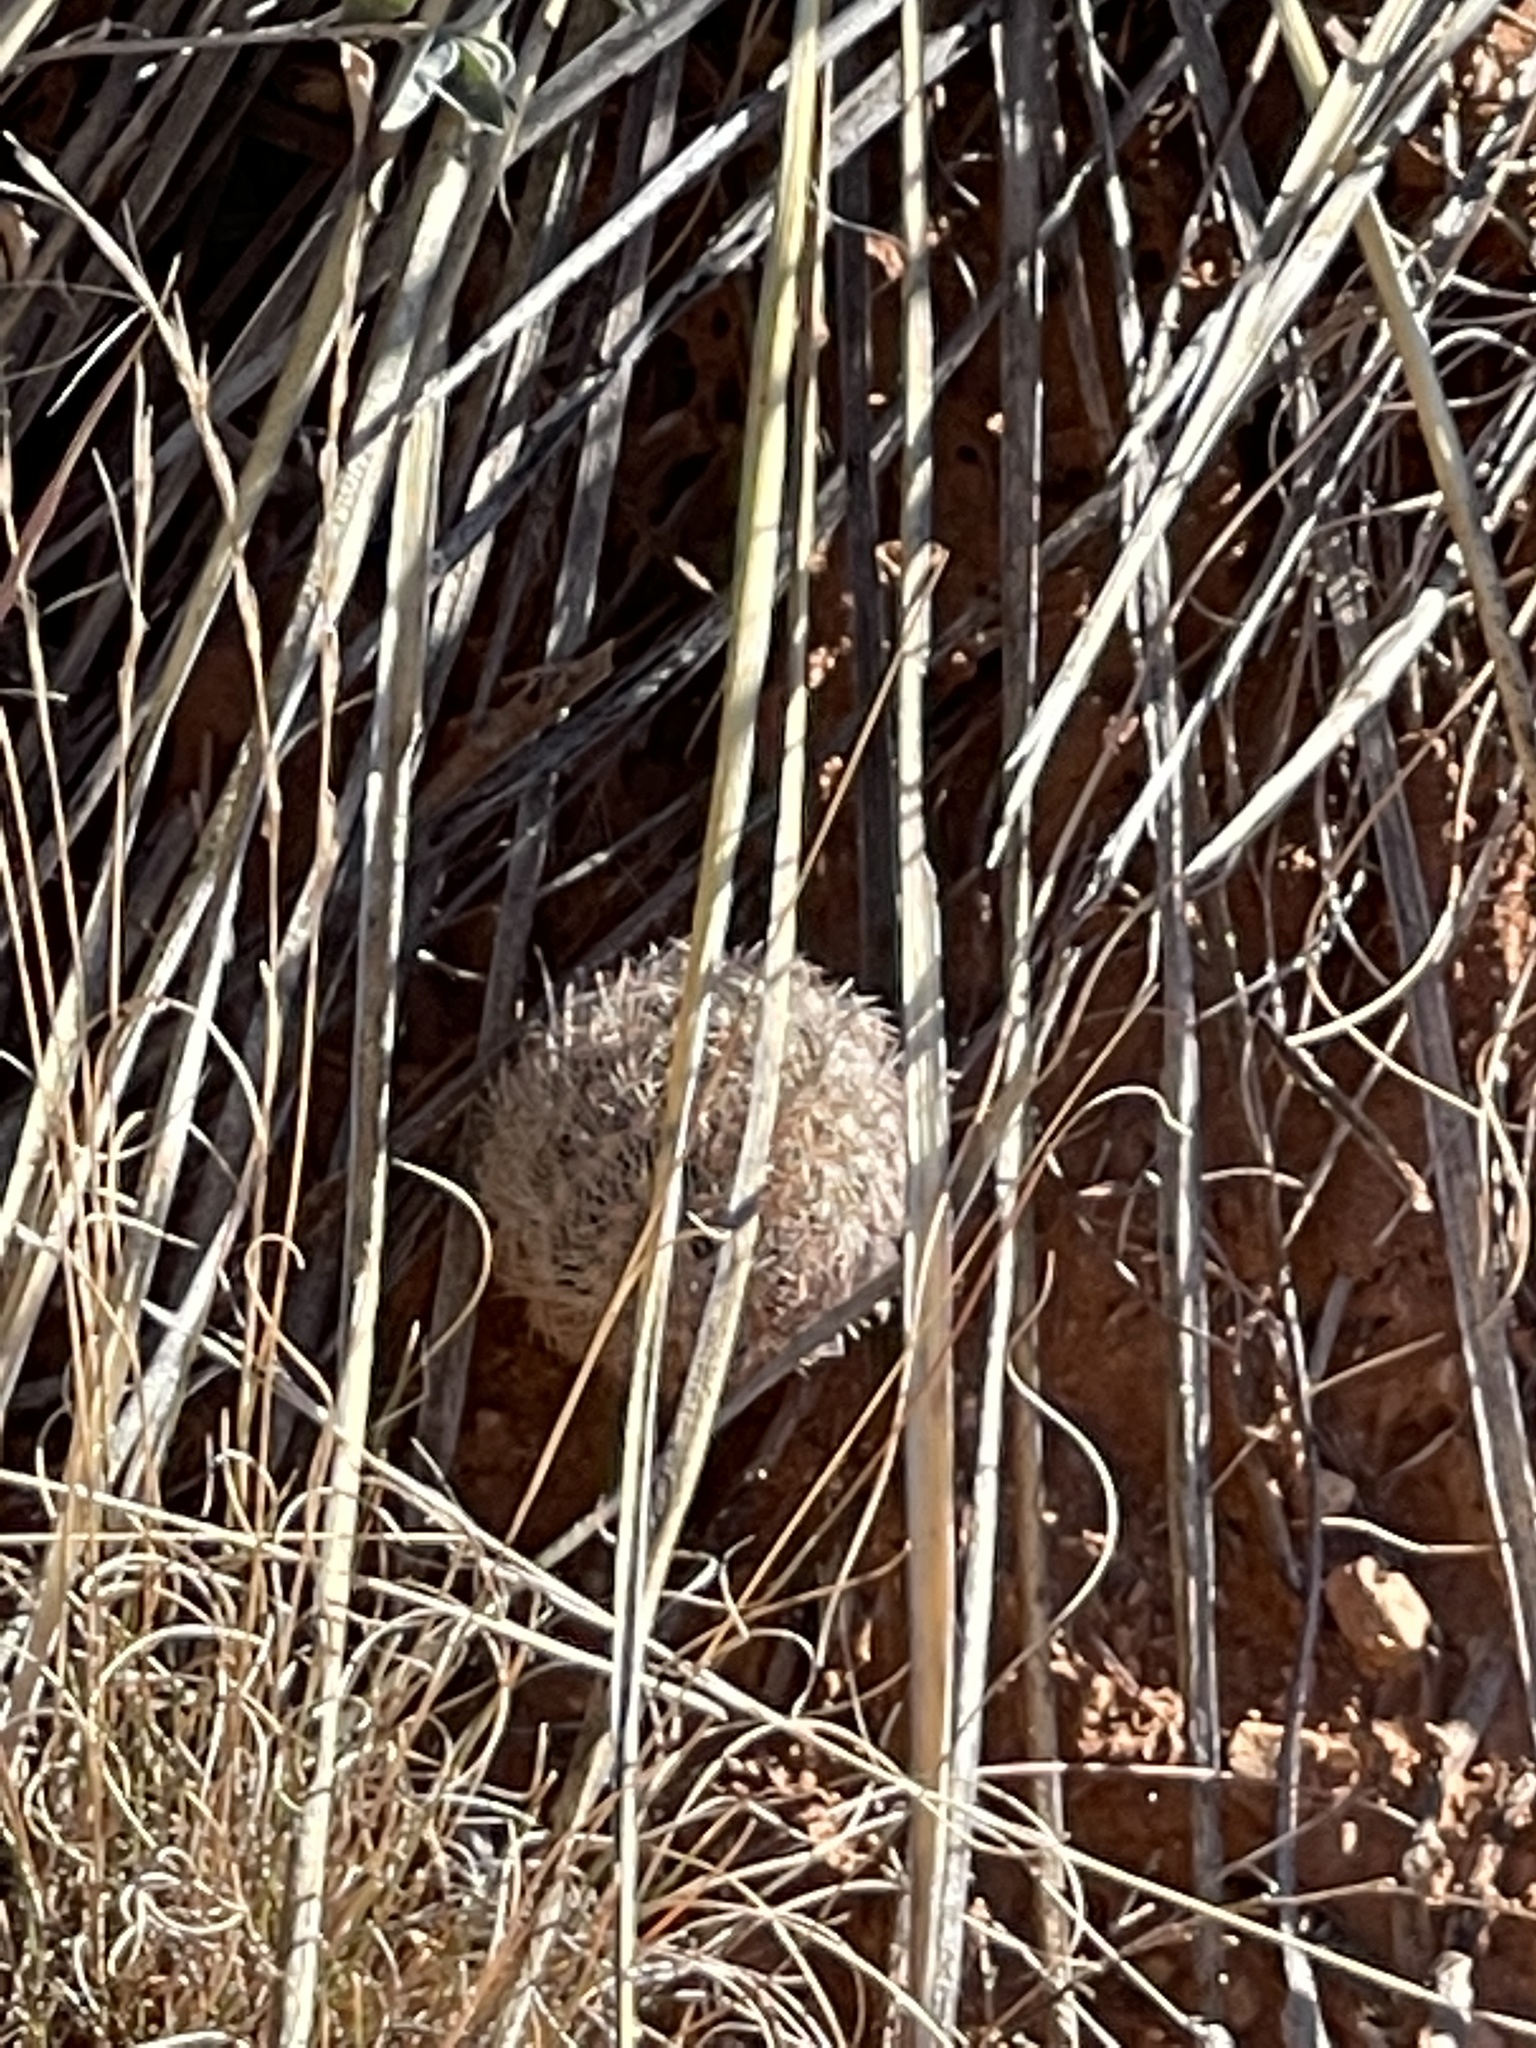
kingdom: Plantae
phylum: Tracheophyta
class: Magnoliopsida
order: Caryophyllales
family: Cactaceae
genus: Echinocereus
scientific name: Echinocereus reichenbachii
